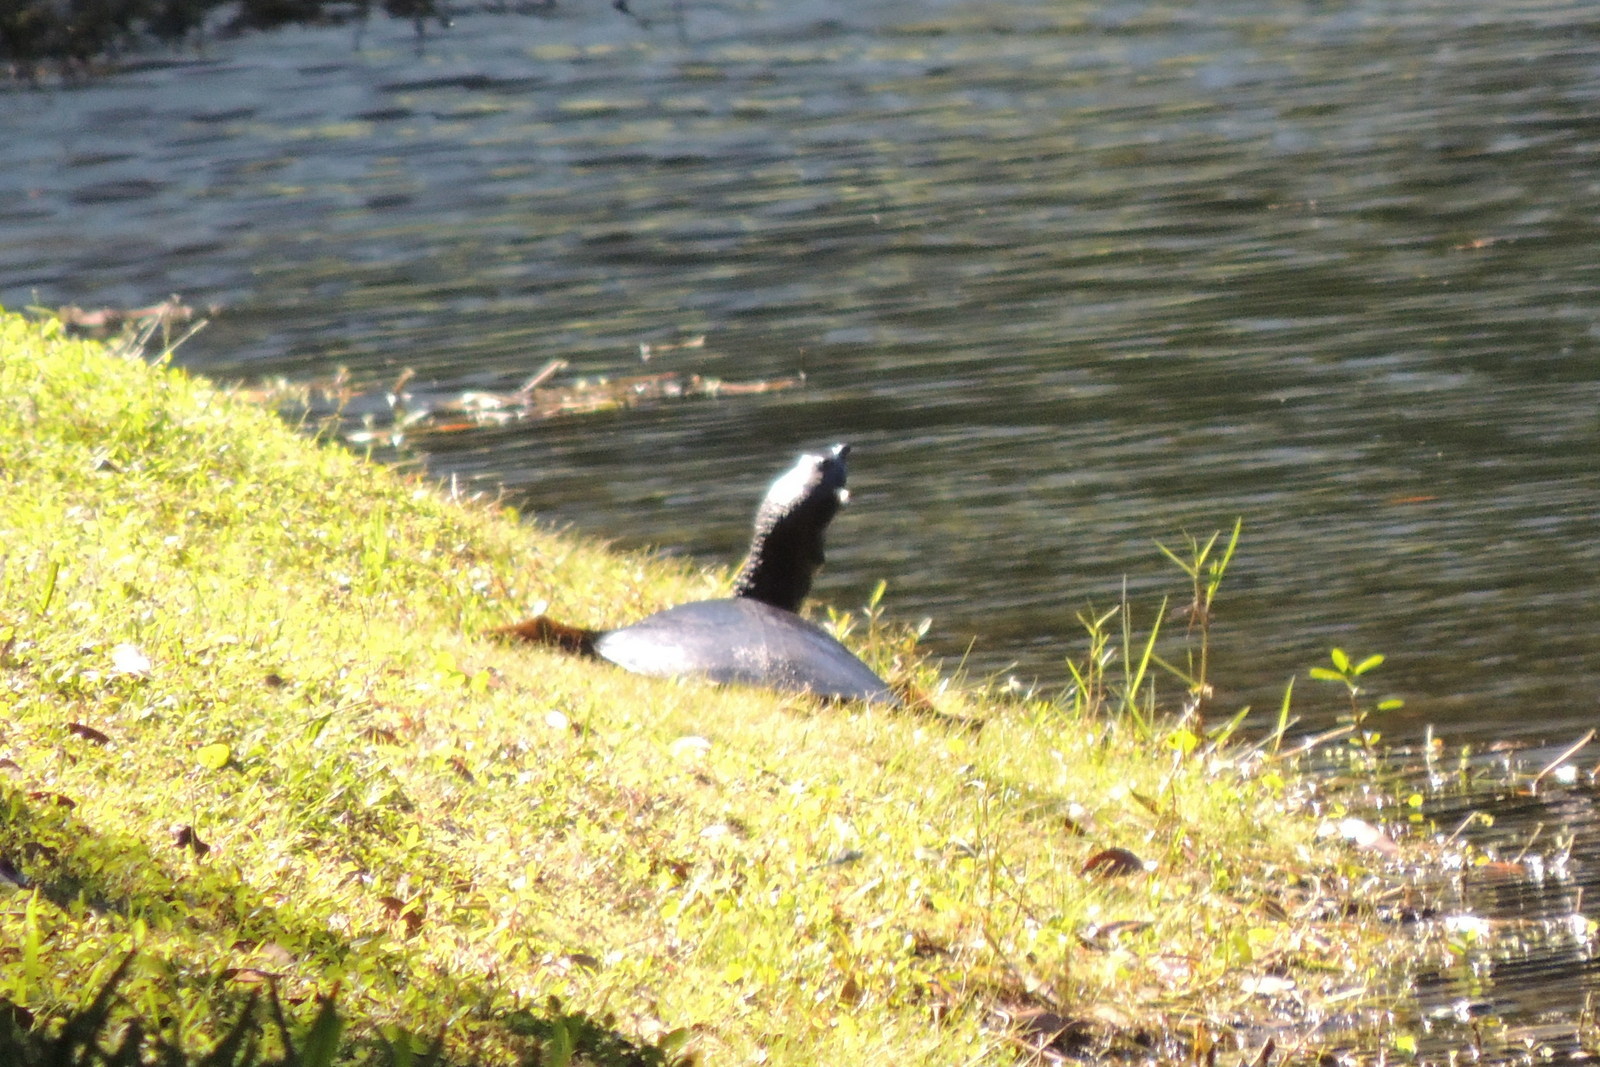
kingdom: Animalia
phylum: Chordata
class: Testudines
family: Trionychidae
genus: Apalone
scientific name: Apalone ferox
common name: Florida softshell turtle
